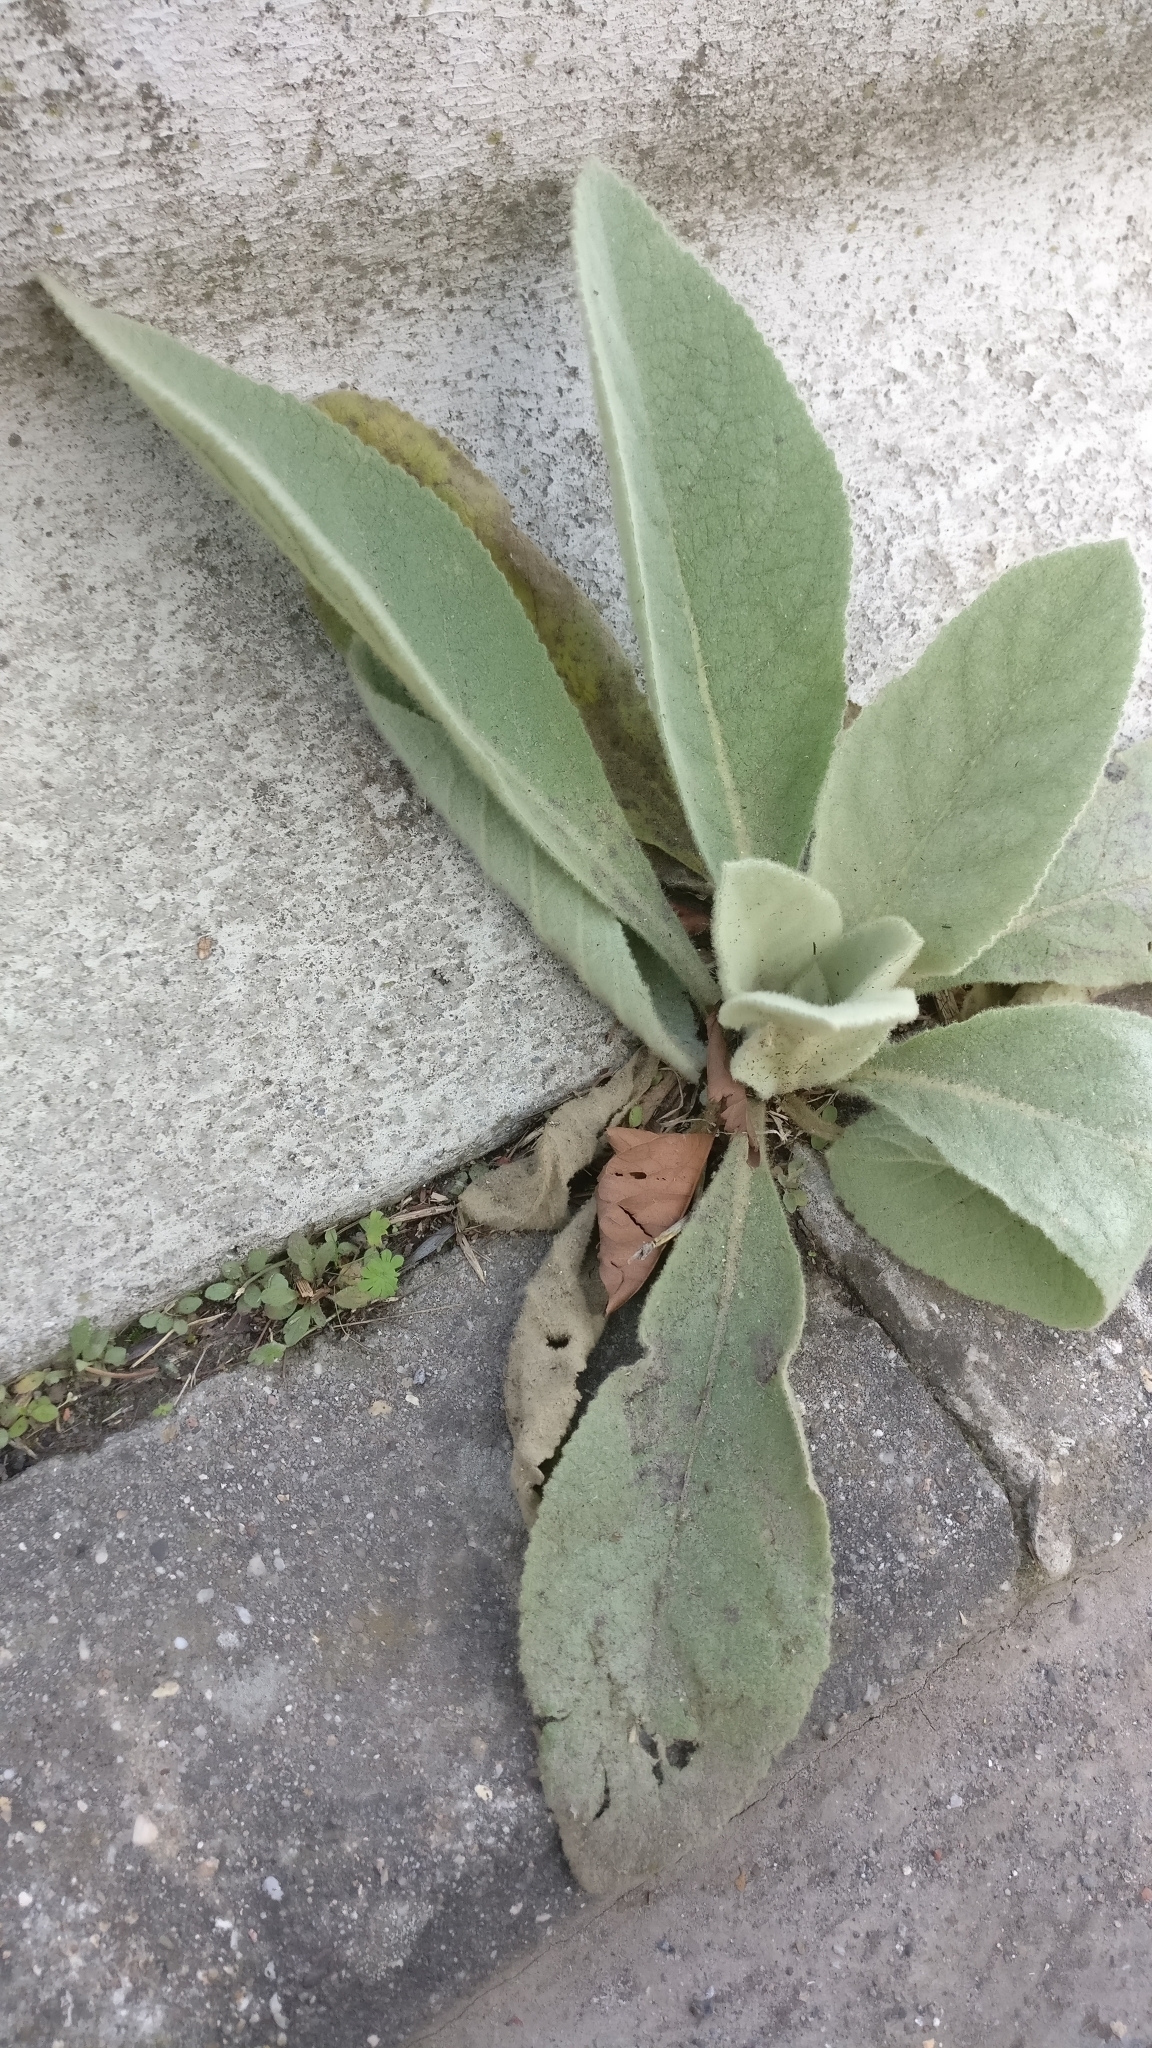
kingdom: Plantae
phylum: Tracheophyta
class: Magnoliopsida
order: Lamiales
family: Scrophulariaceae
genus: Verbascum
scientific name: Verbascum thapsus
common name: Common mullein
